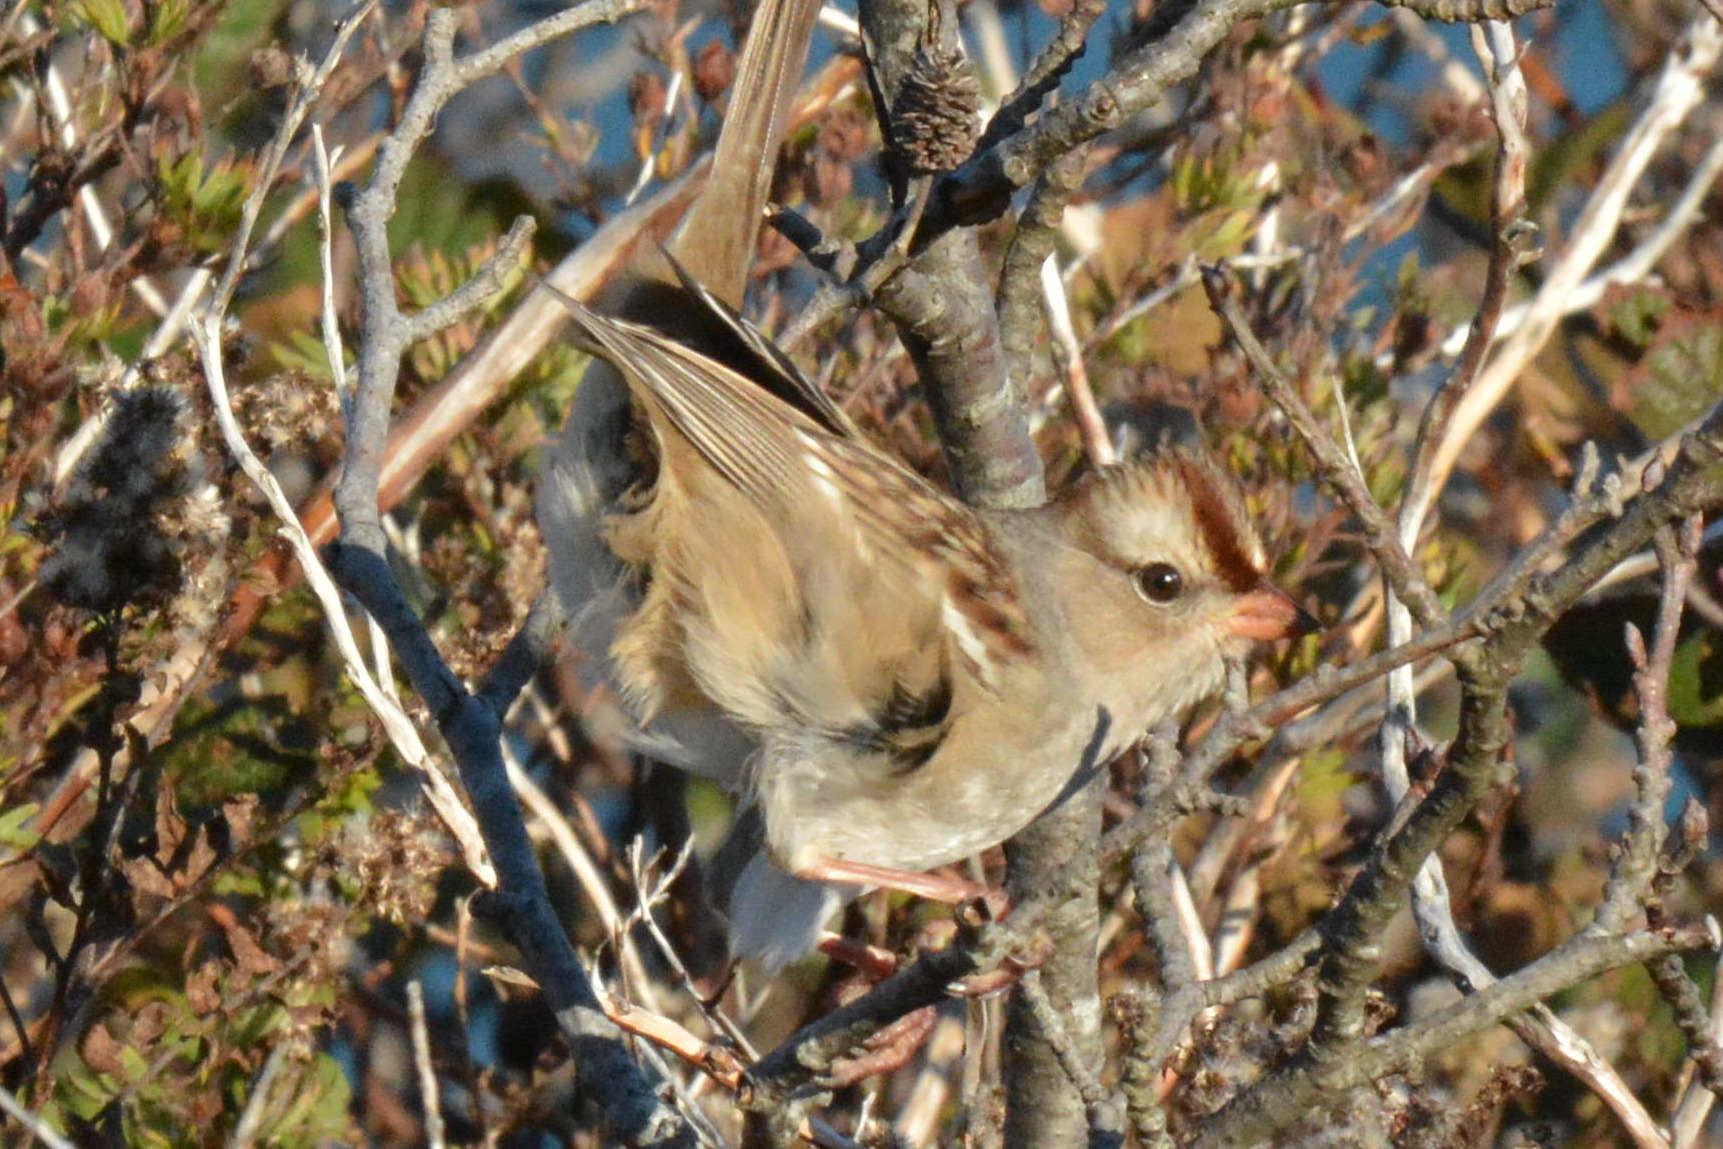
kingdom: Animalia
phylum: Chordata
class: Aves
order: Passeriformes
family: Passerellidae
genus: Zonotrichia
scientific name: Zonotrichia leucophrys
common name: White-crowned sparrow
